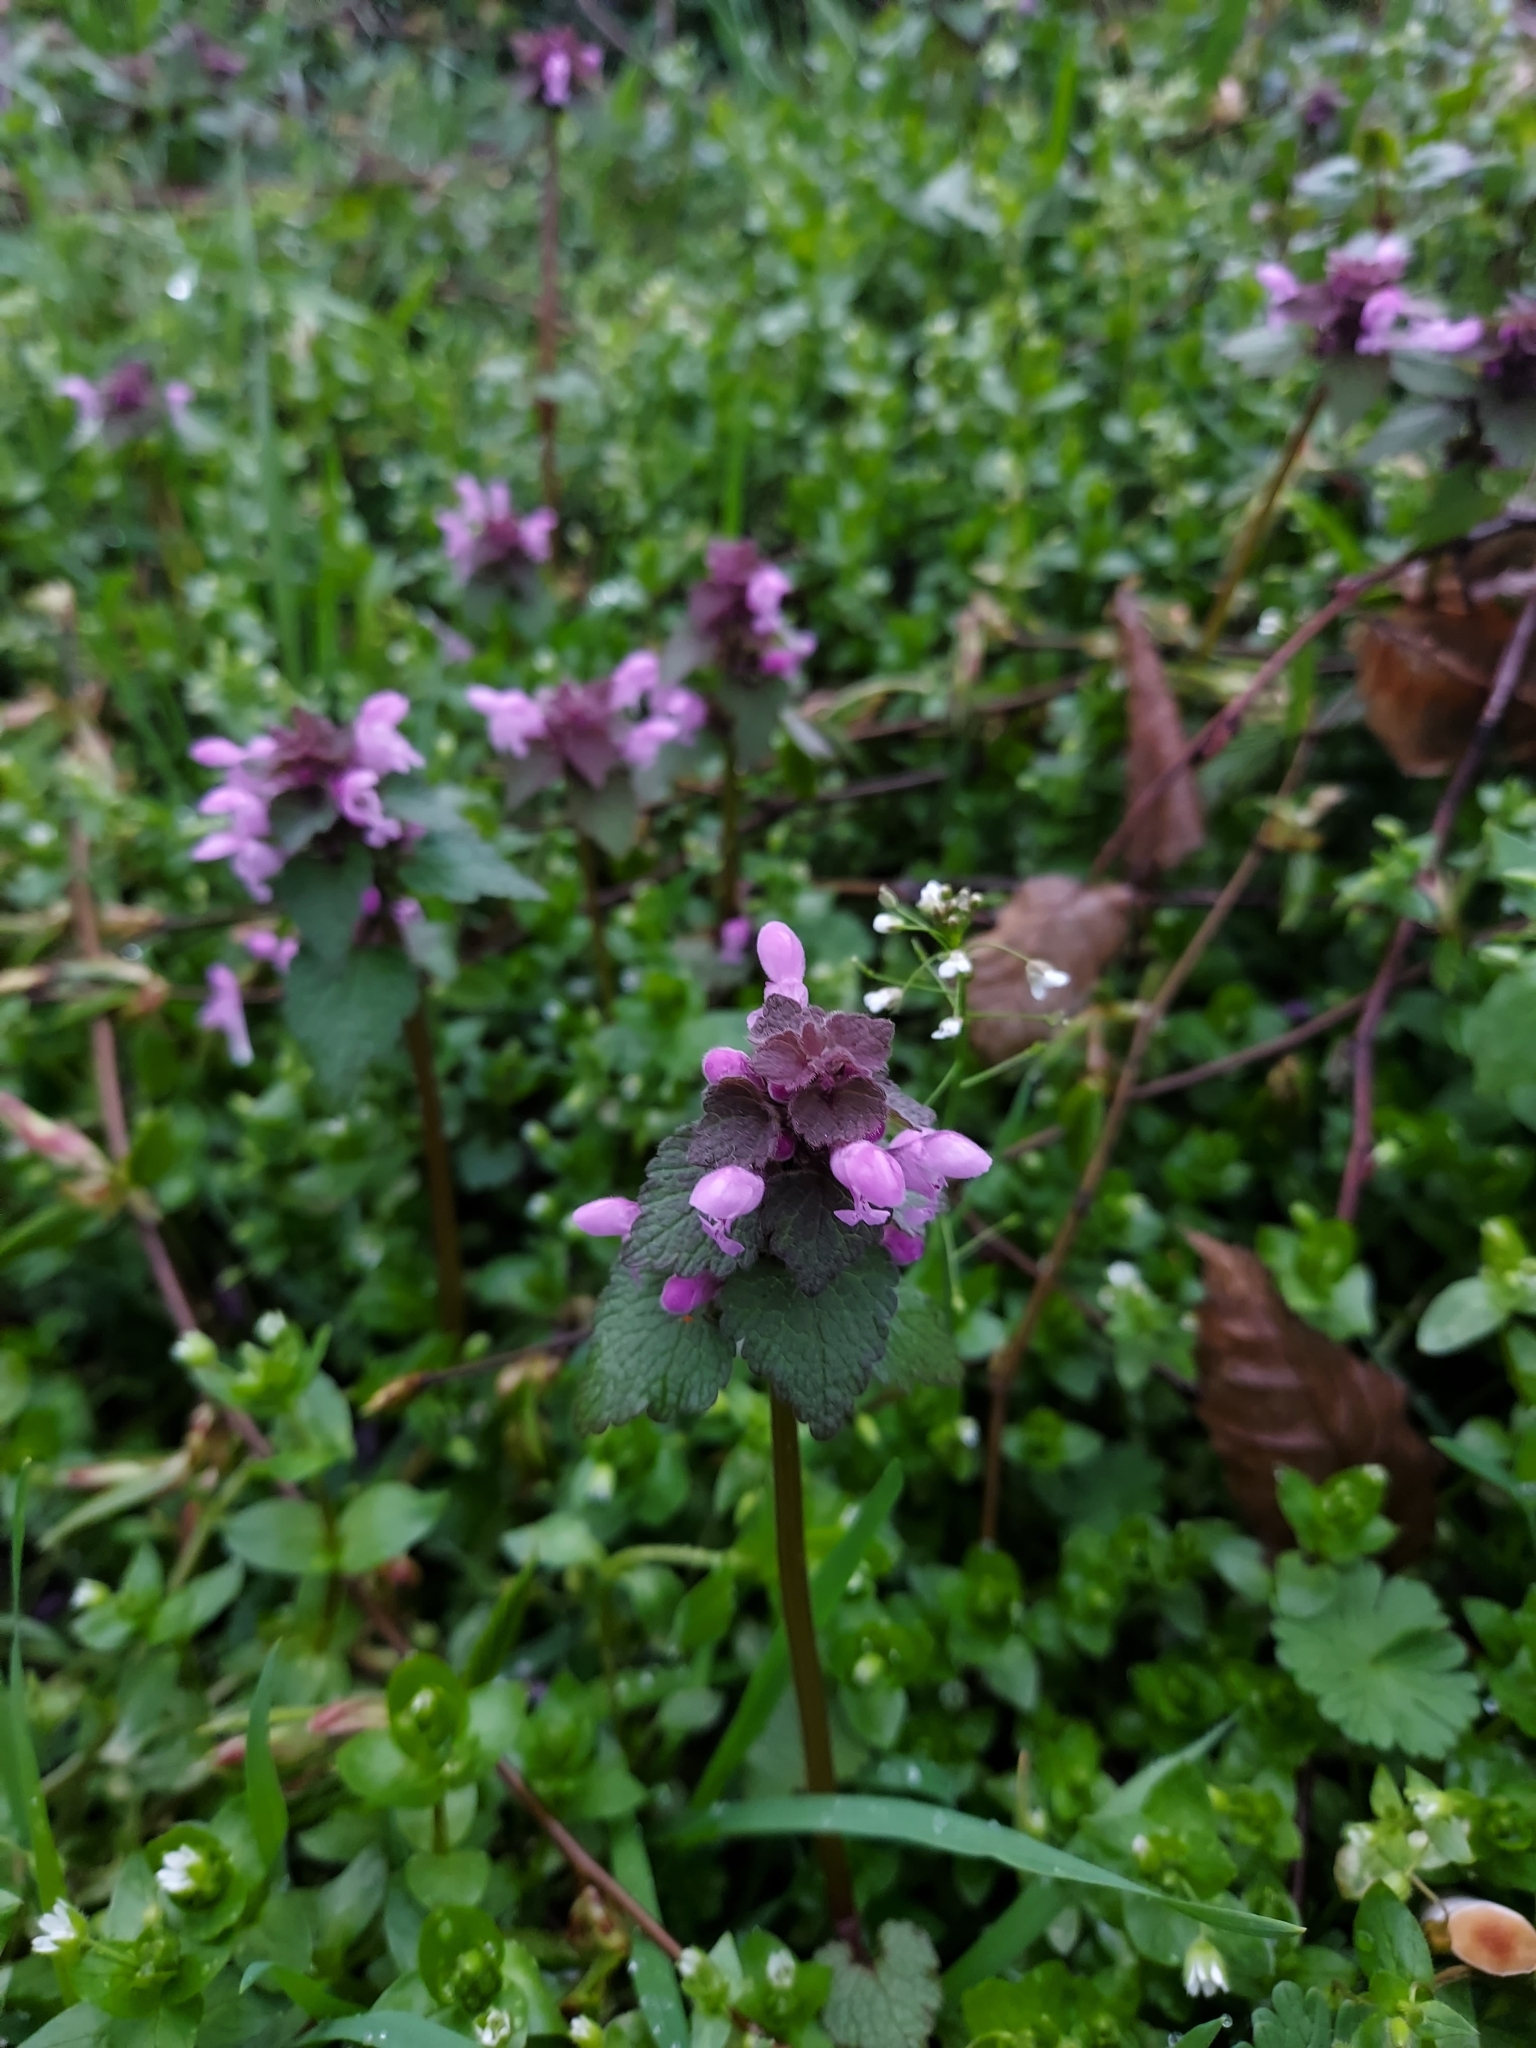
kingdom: Plantae
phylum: Tracheophyta
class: Magnoliopsida
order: Lamiales
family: Lamiaceae
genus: Lamium
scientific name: Lamium purpureum
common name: Red dead-nettle
